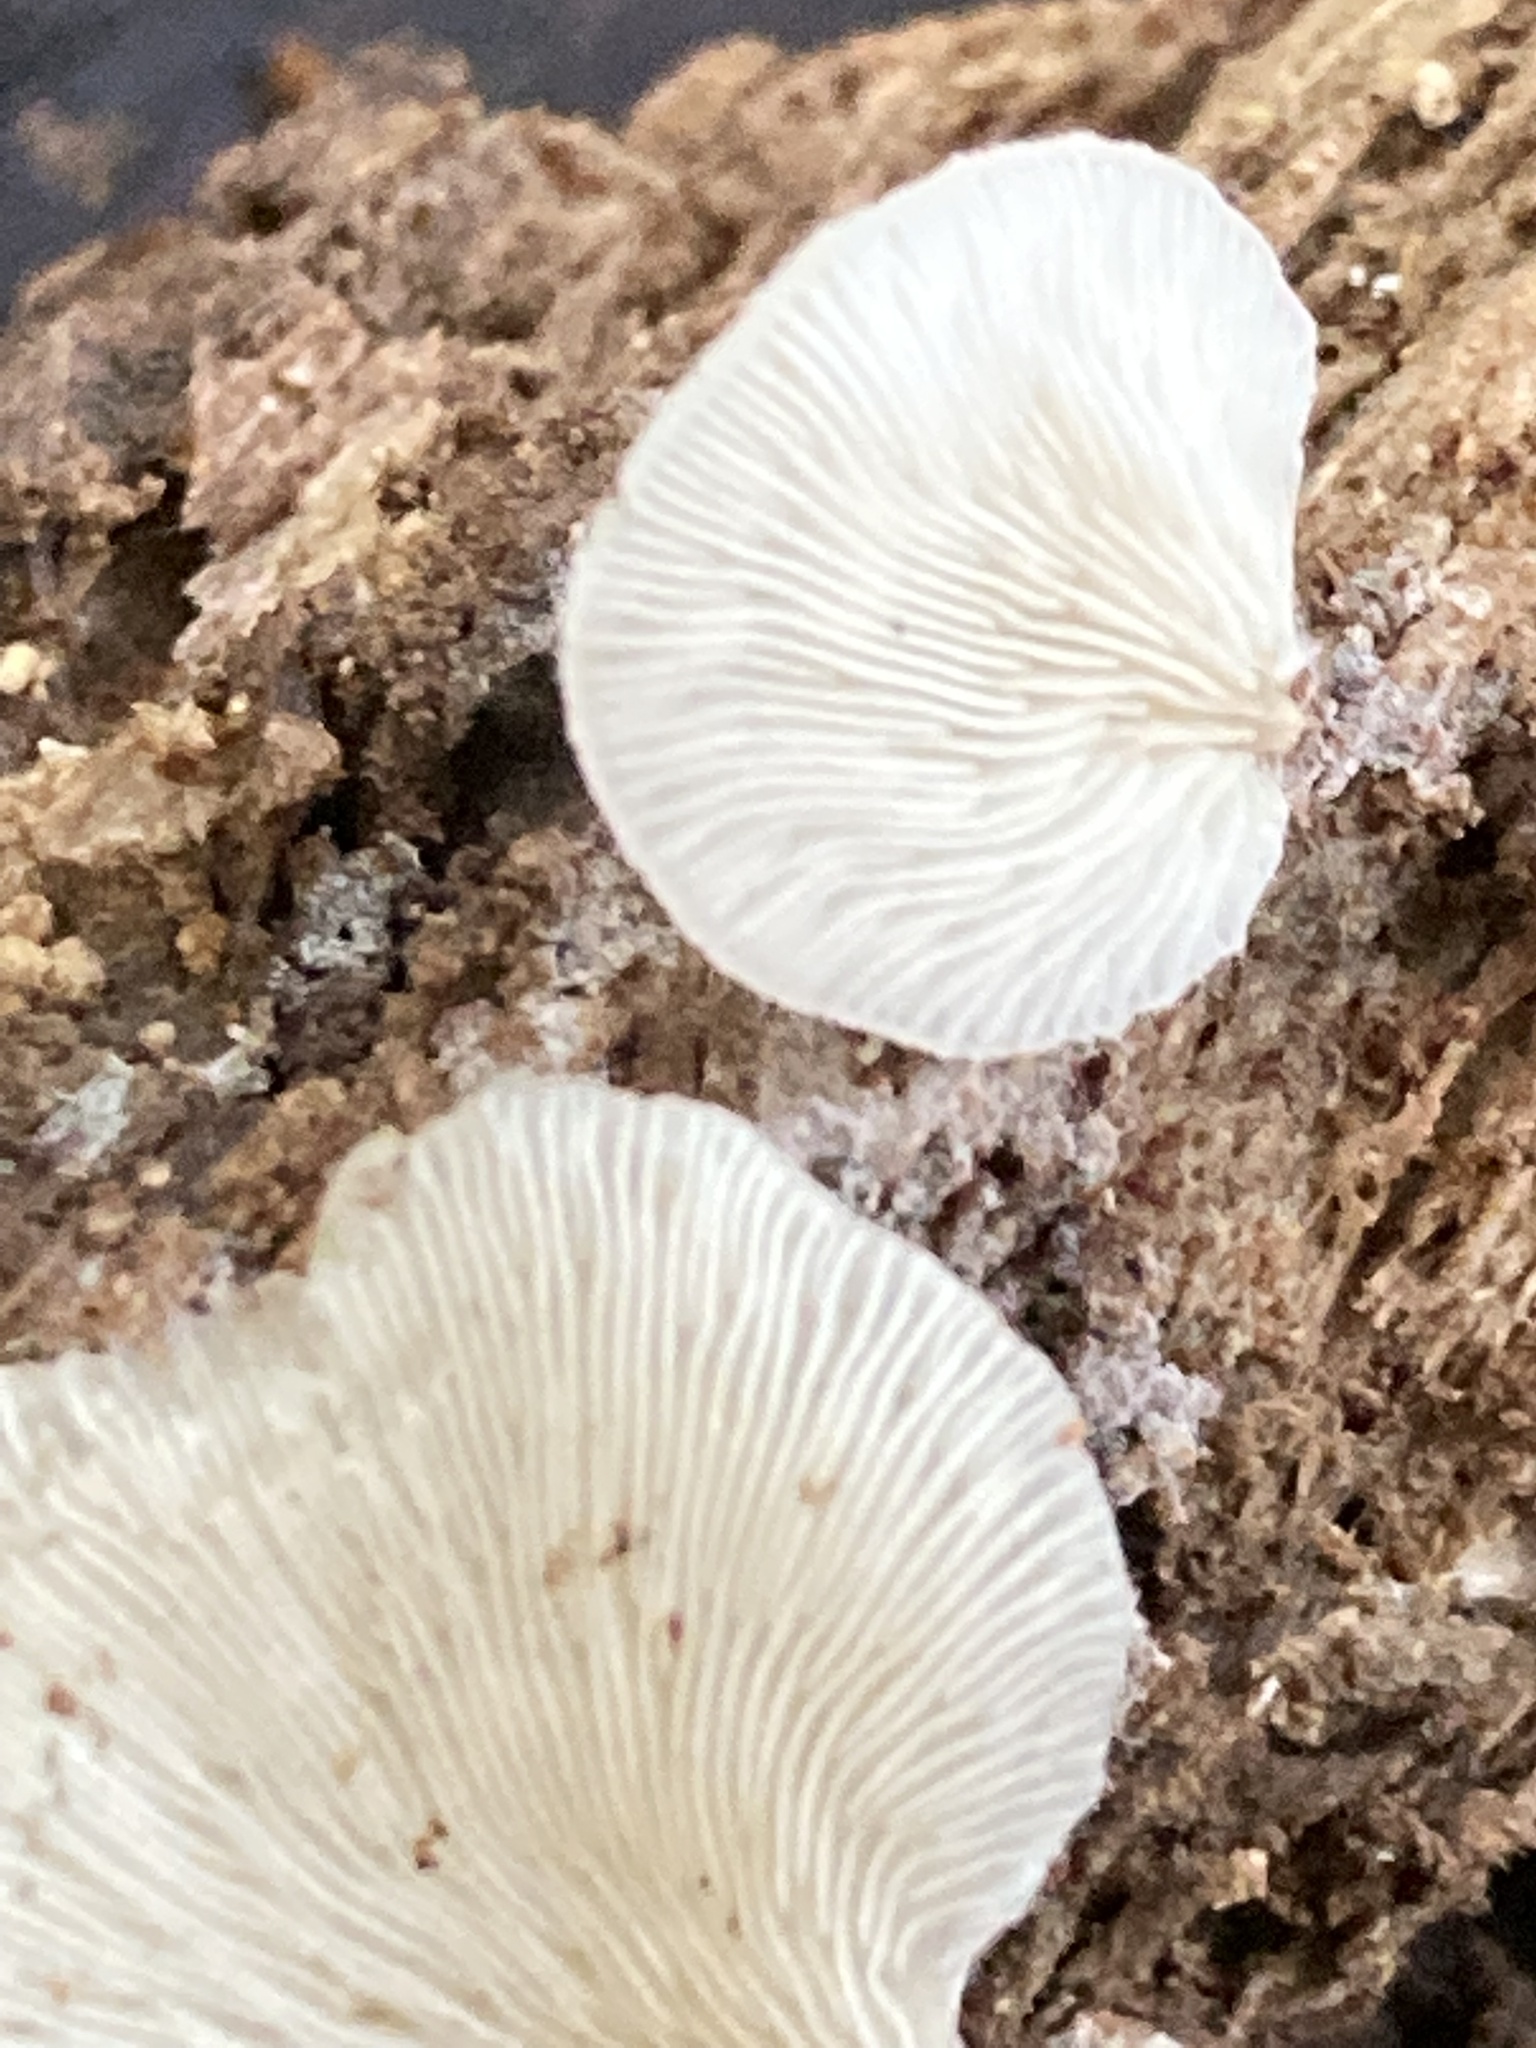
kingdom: Fungi
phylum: Basidiomycota
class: Agaricomycetes
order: Agaricales
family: Crepidotaceae
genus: Crepidotus
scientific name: Crepidotus applanatus
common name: Flat crep
